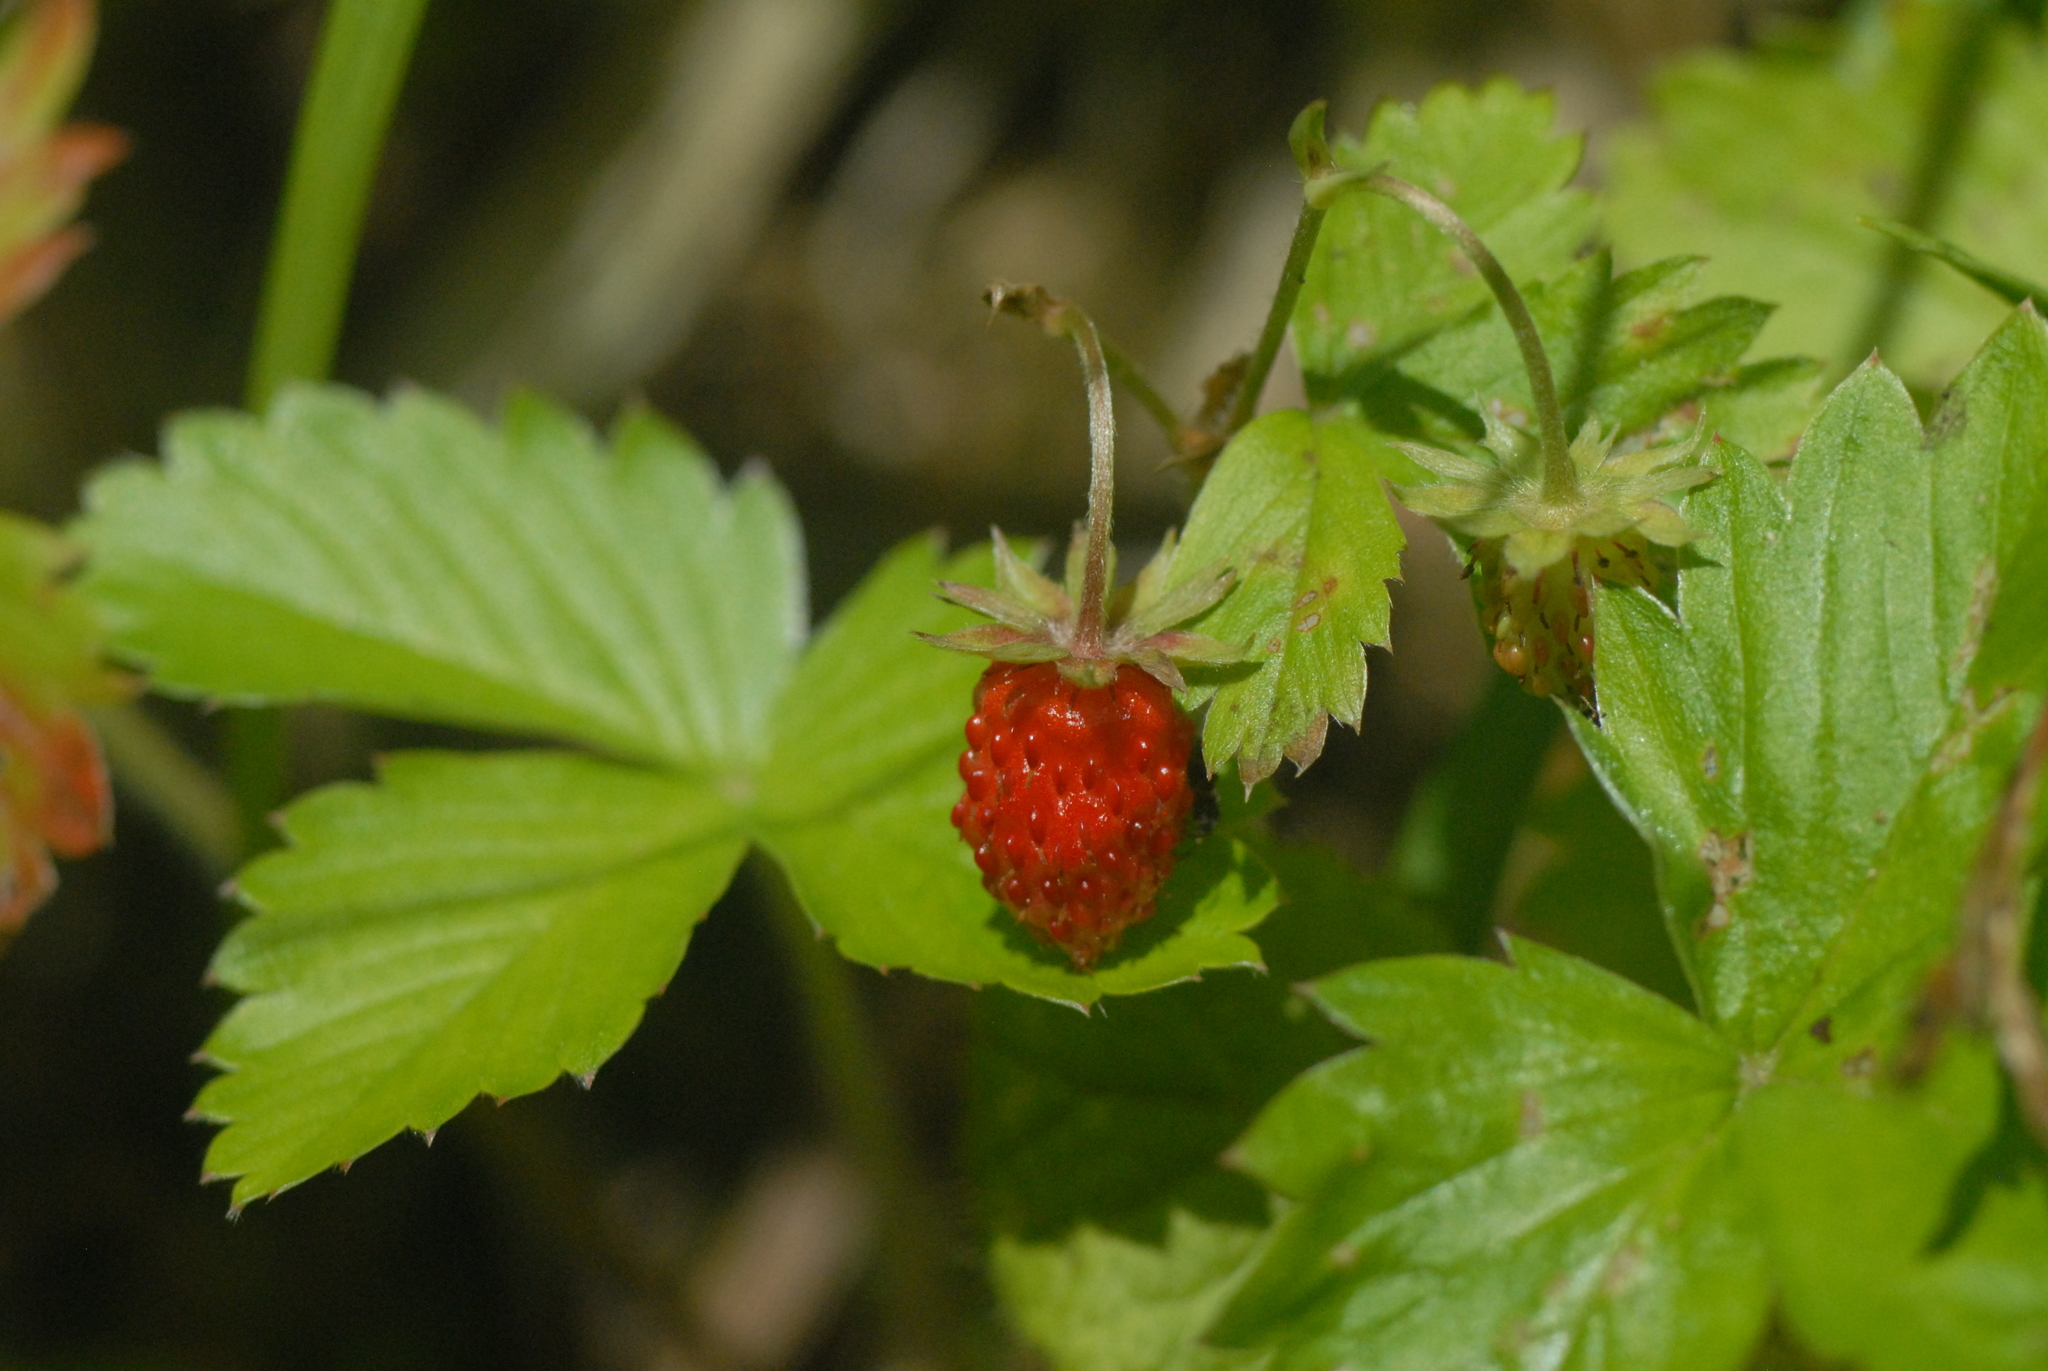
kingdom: Plantae
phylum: Tracheophyta
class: Magnoliopsida
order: Rosales
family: Rosaceae
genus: Fragaria
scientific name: Fragaria vesca
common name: Wild strawberry
